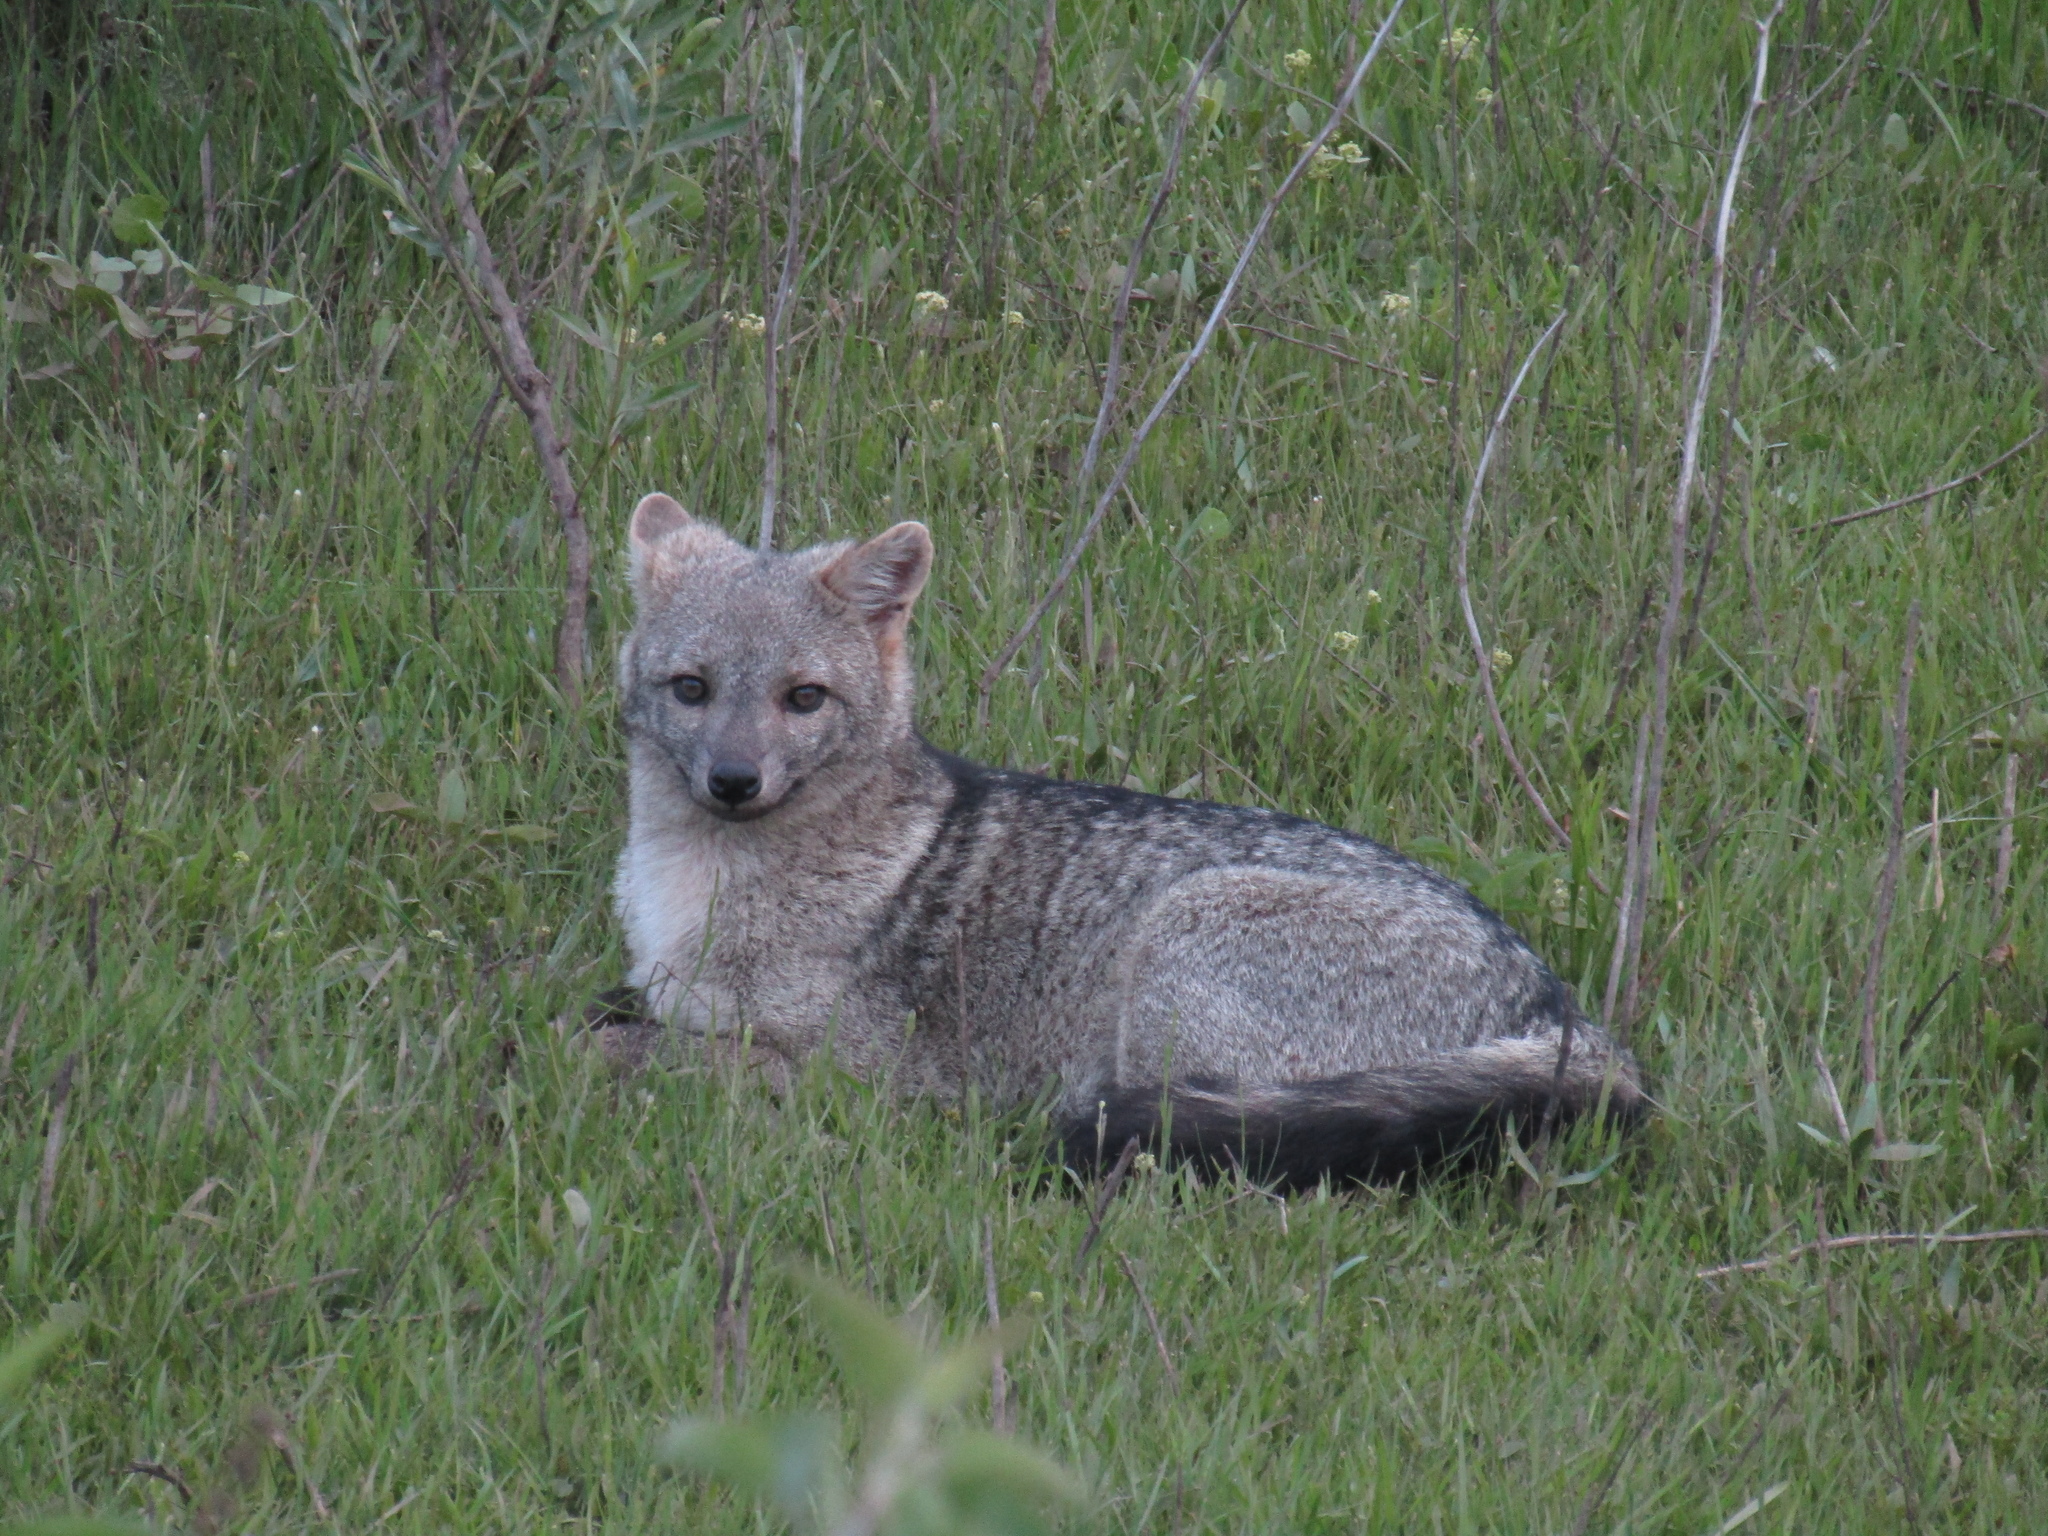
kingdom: Animalia
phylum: Chordata
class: Mammalia
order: Carnivora
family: Canidae
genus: Cerdocyon
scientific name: Cerdocyon thous
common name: Crab-eating fox
